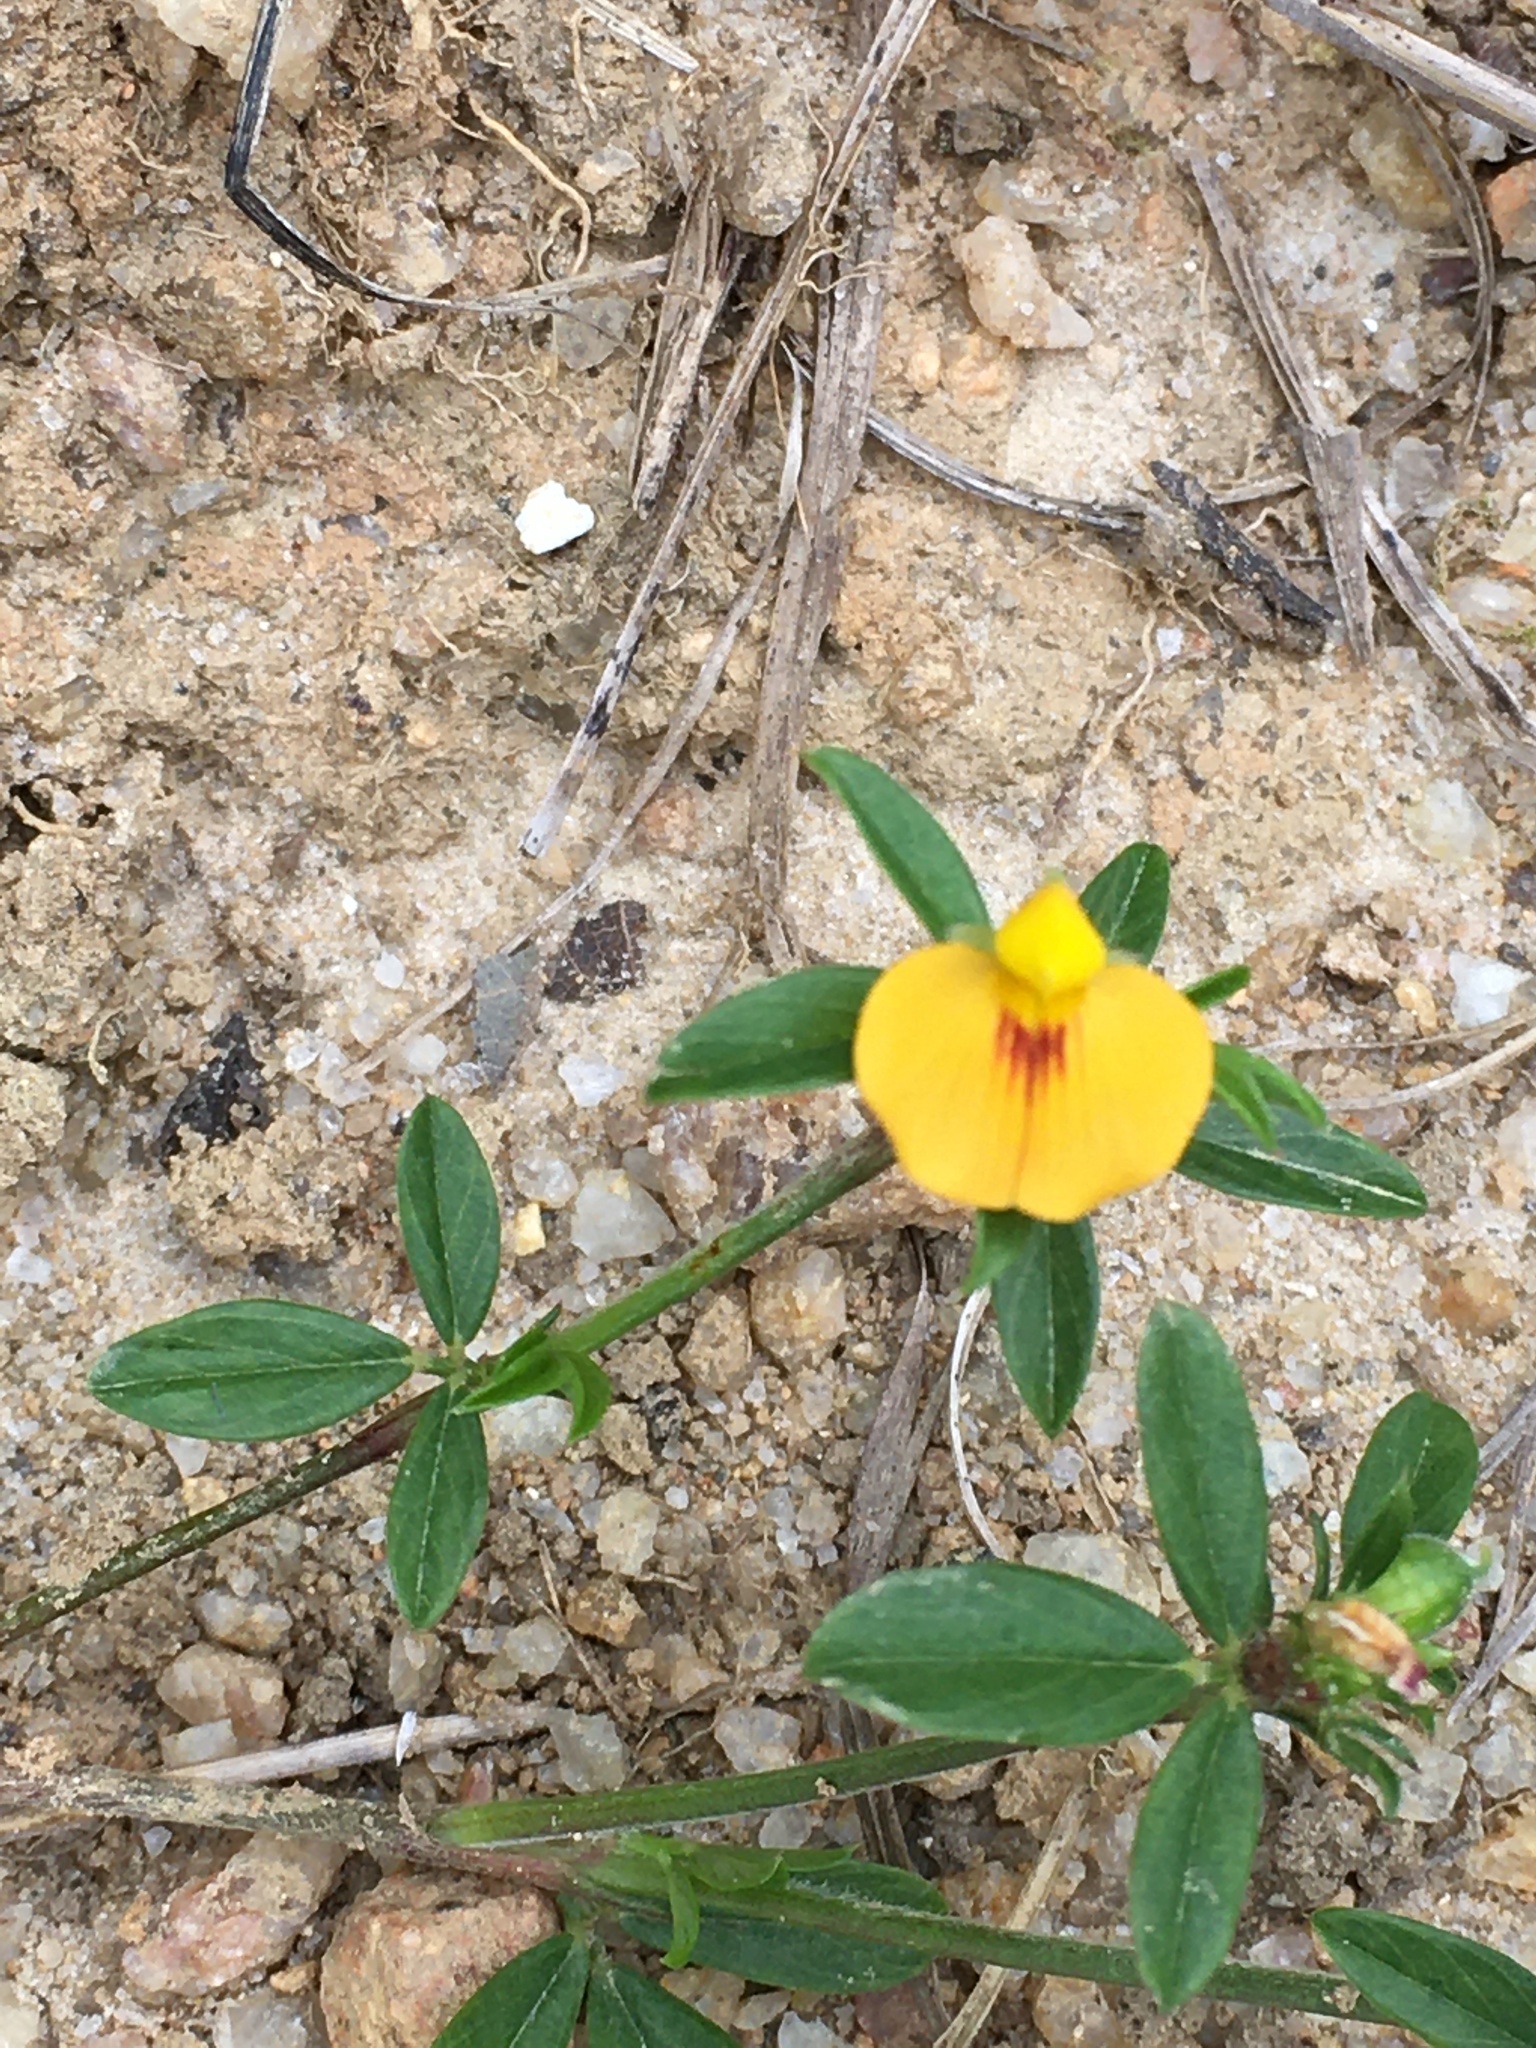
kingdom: Plantae
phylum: Tracheophyta
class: Magnoliopsida
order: Fabales
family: Fabaceae
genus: Stylosanthes
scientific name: Stylosanthes biflora
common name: Two-flower pencil-flower
